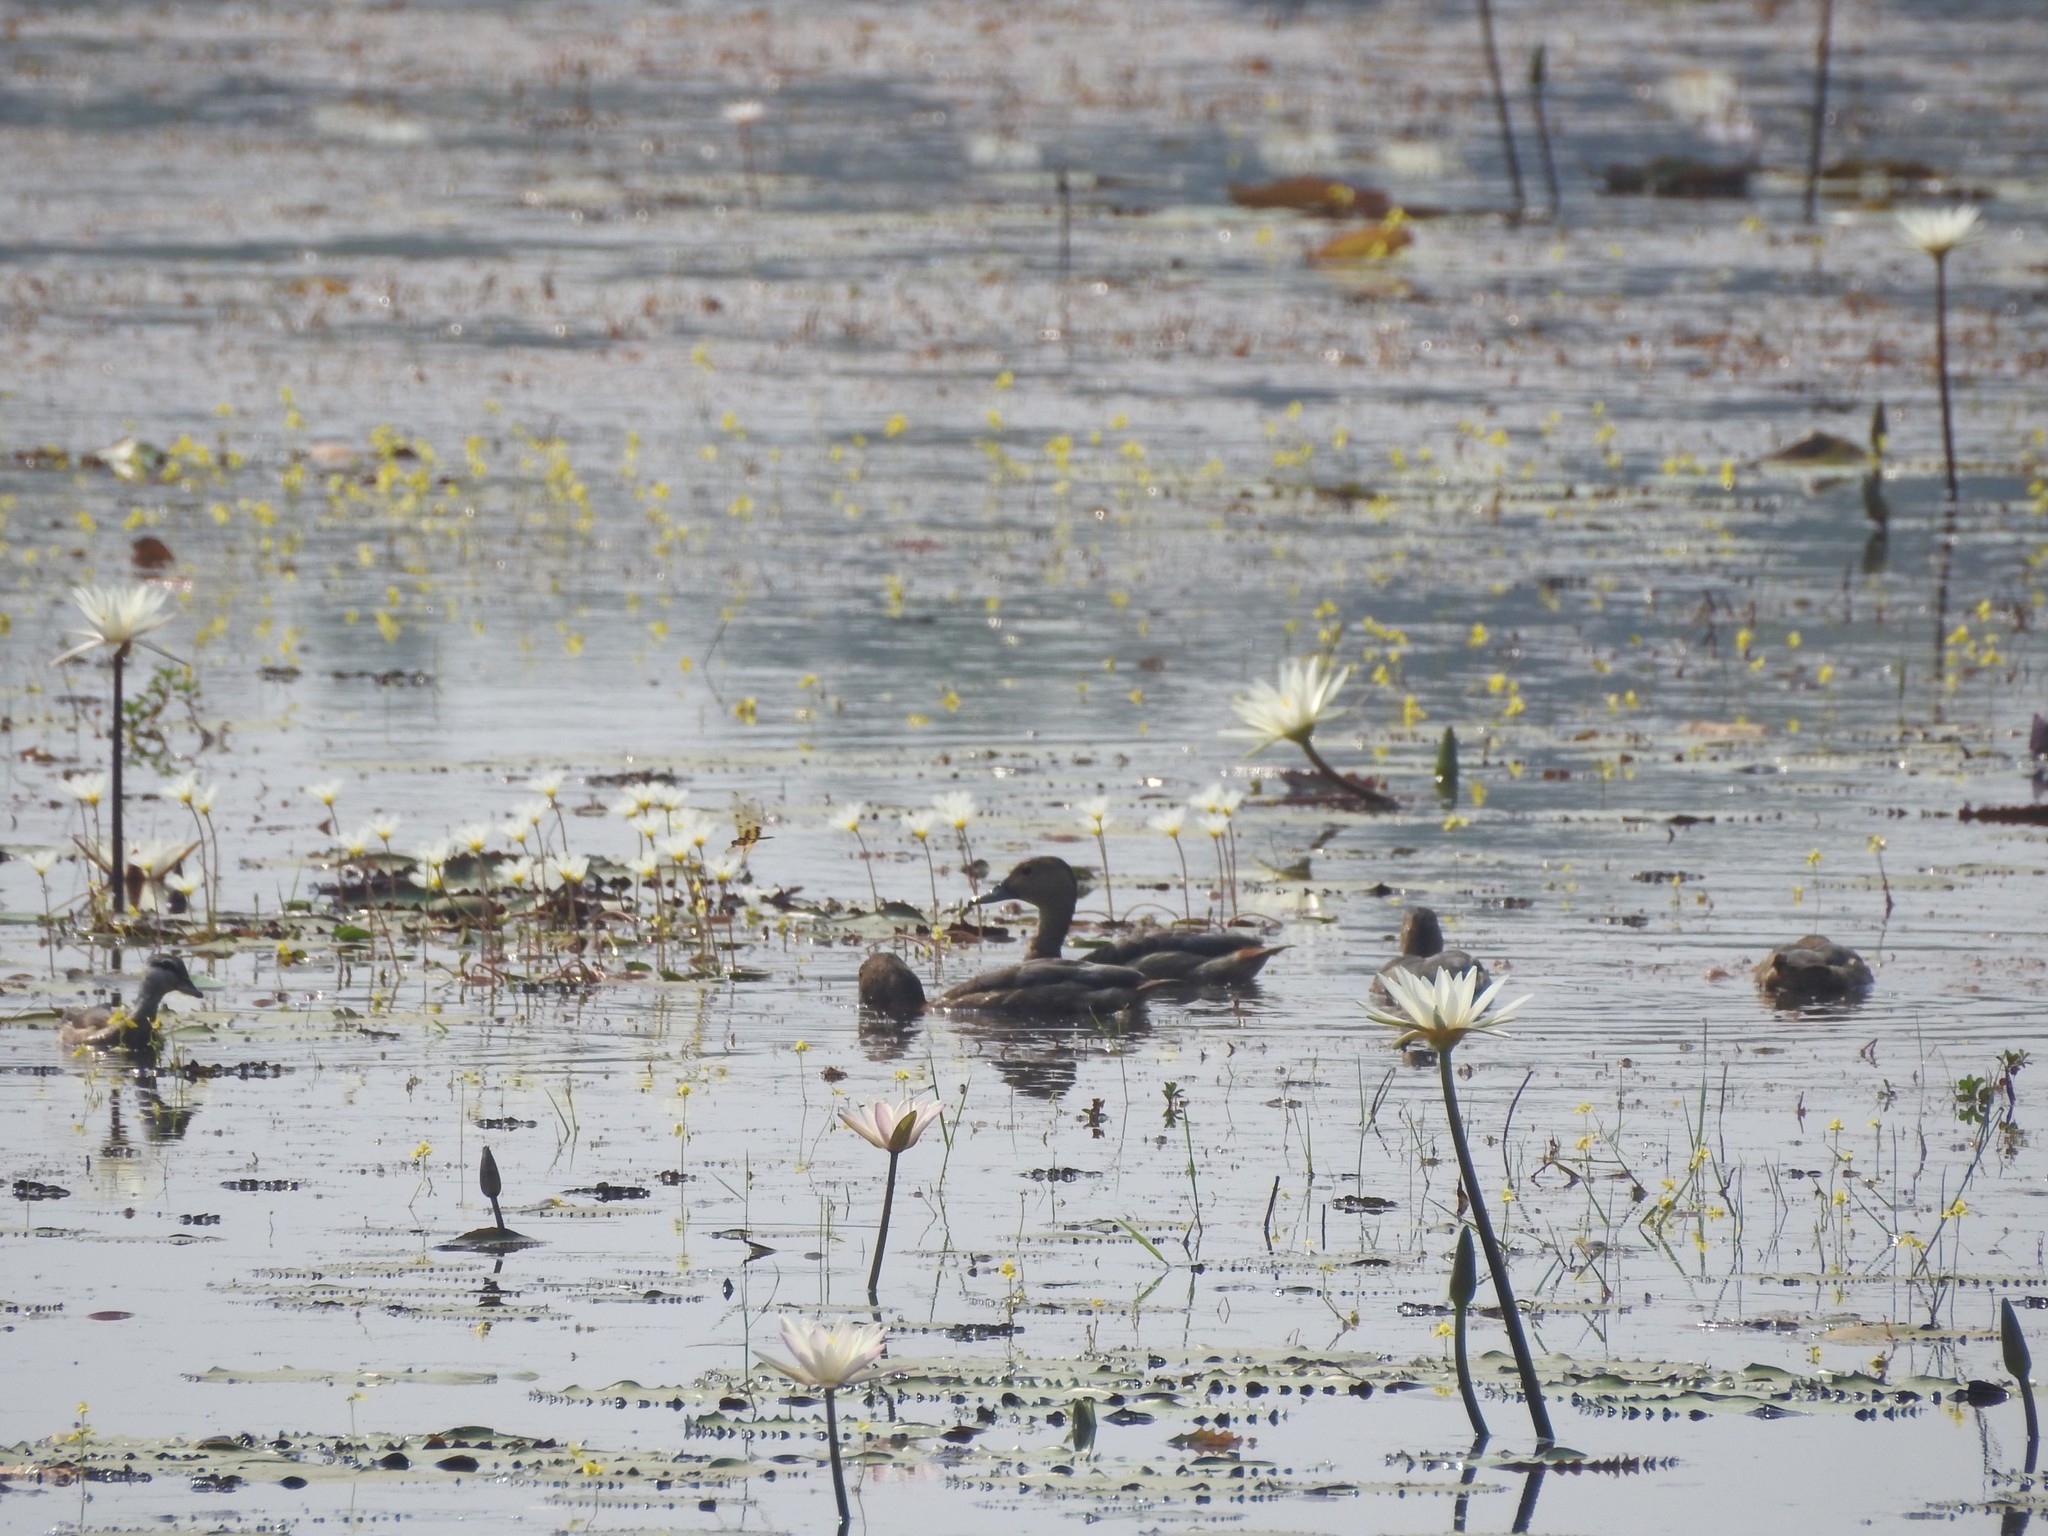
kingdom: Animalia
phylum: Chordata
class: Aves
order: Anseriformes
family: Anatidae
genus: Dendrocygna
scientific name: Dendrocygna javanica
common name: Lesser whistling-duck
